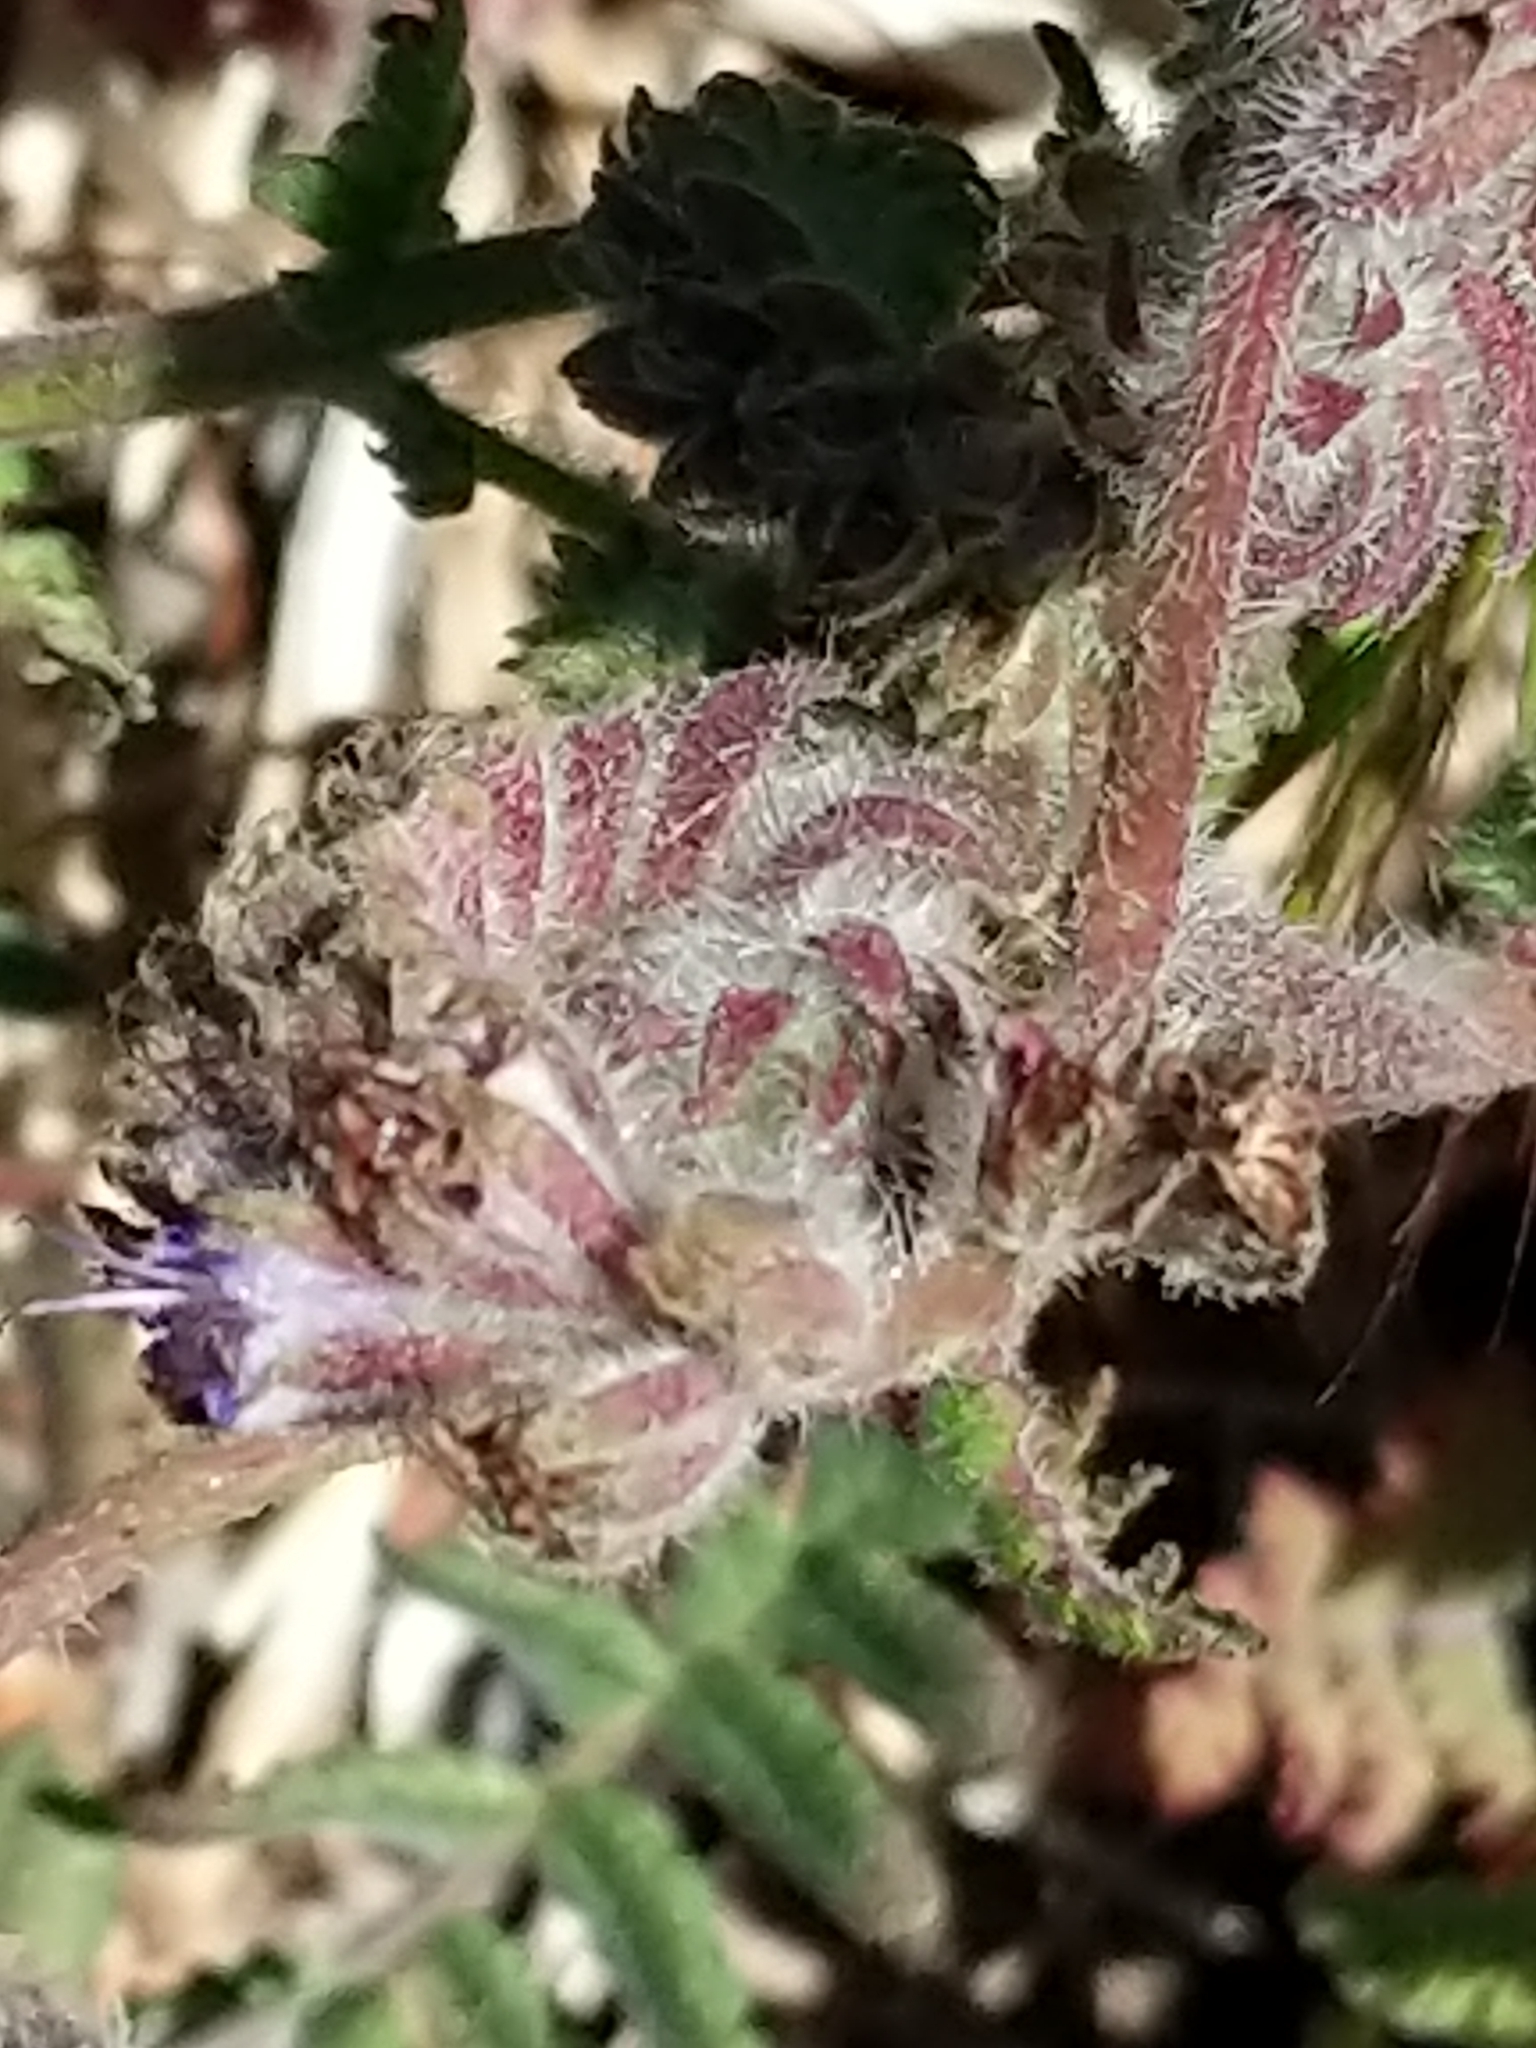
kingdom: Plantae
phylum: Tracheophyta
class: Magnoliopsida
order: Boraginales
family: Hydrophyllaceae
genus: Phacelia
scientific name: Phacelia distans
